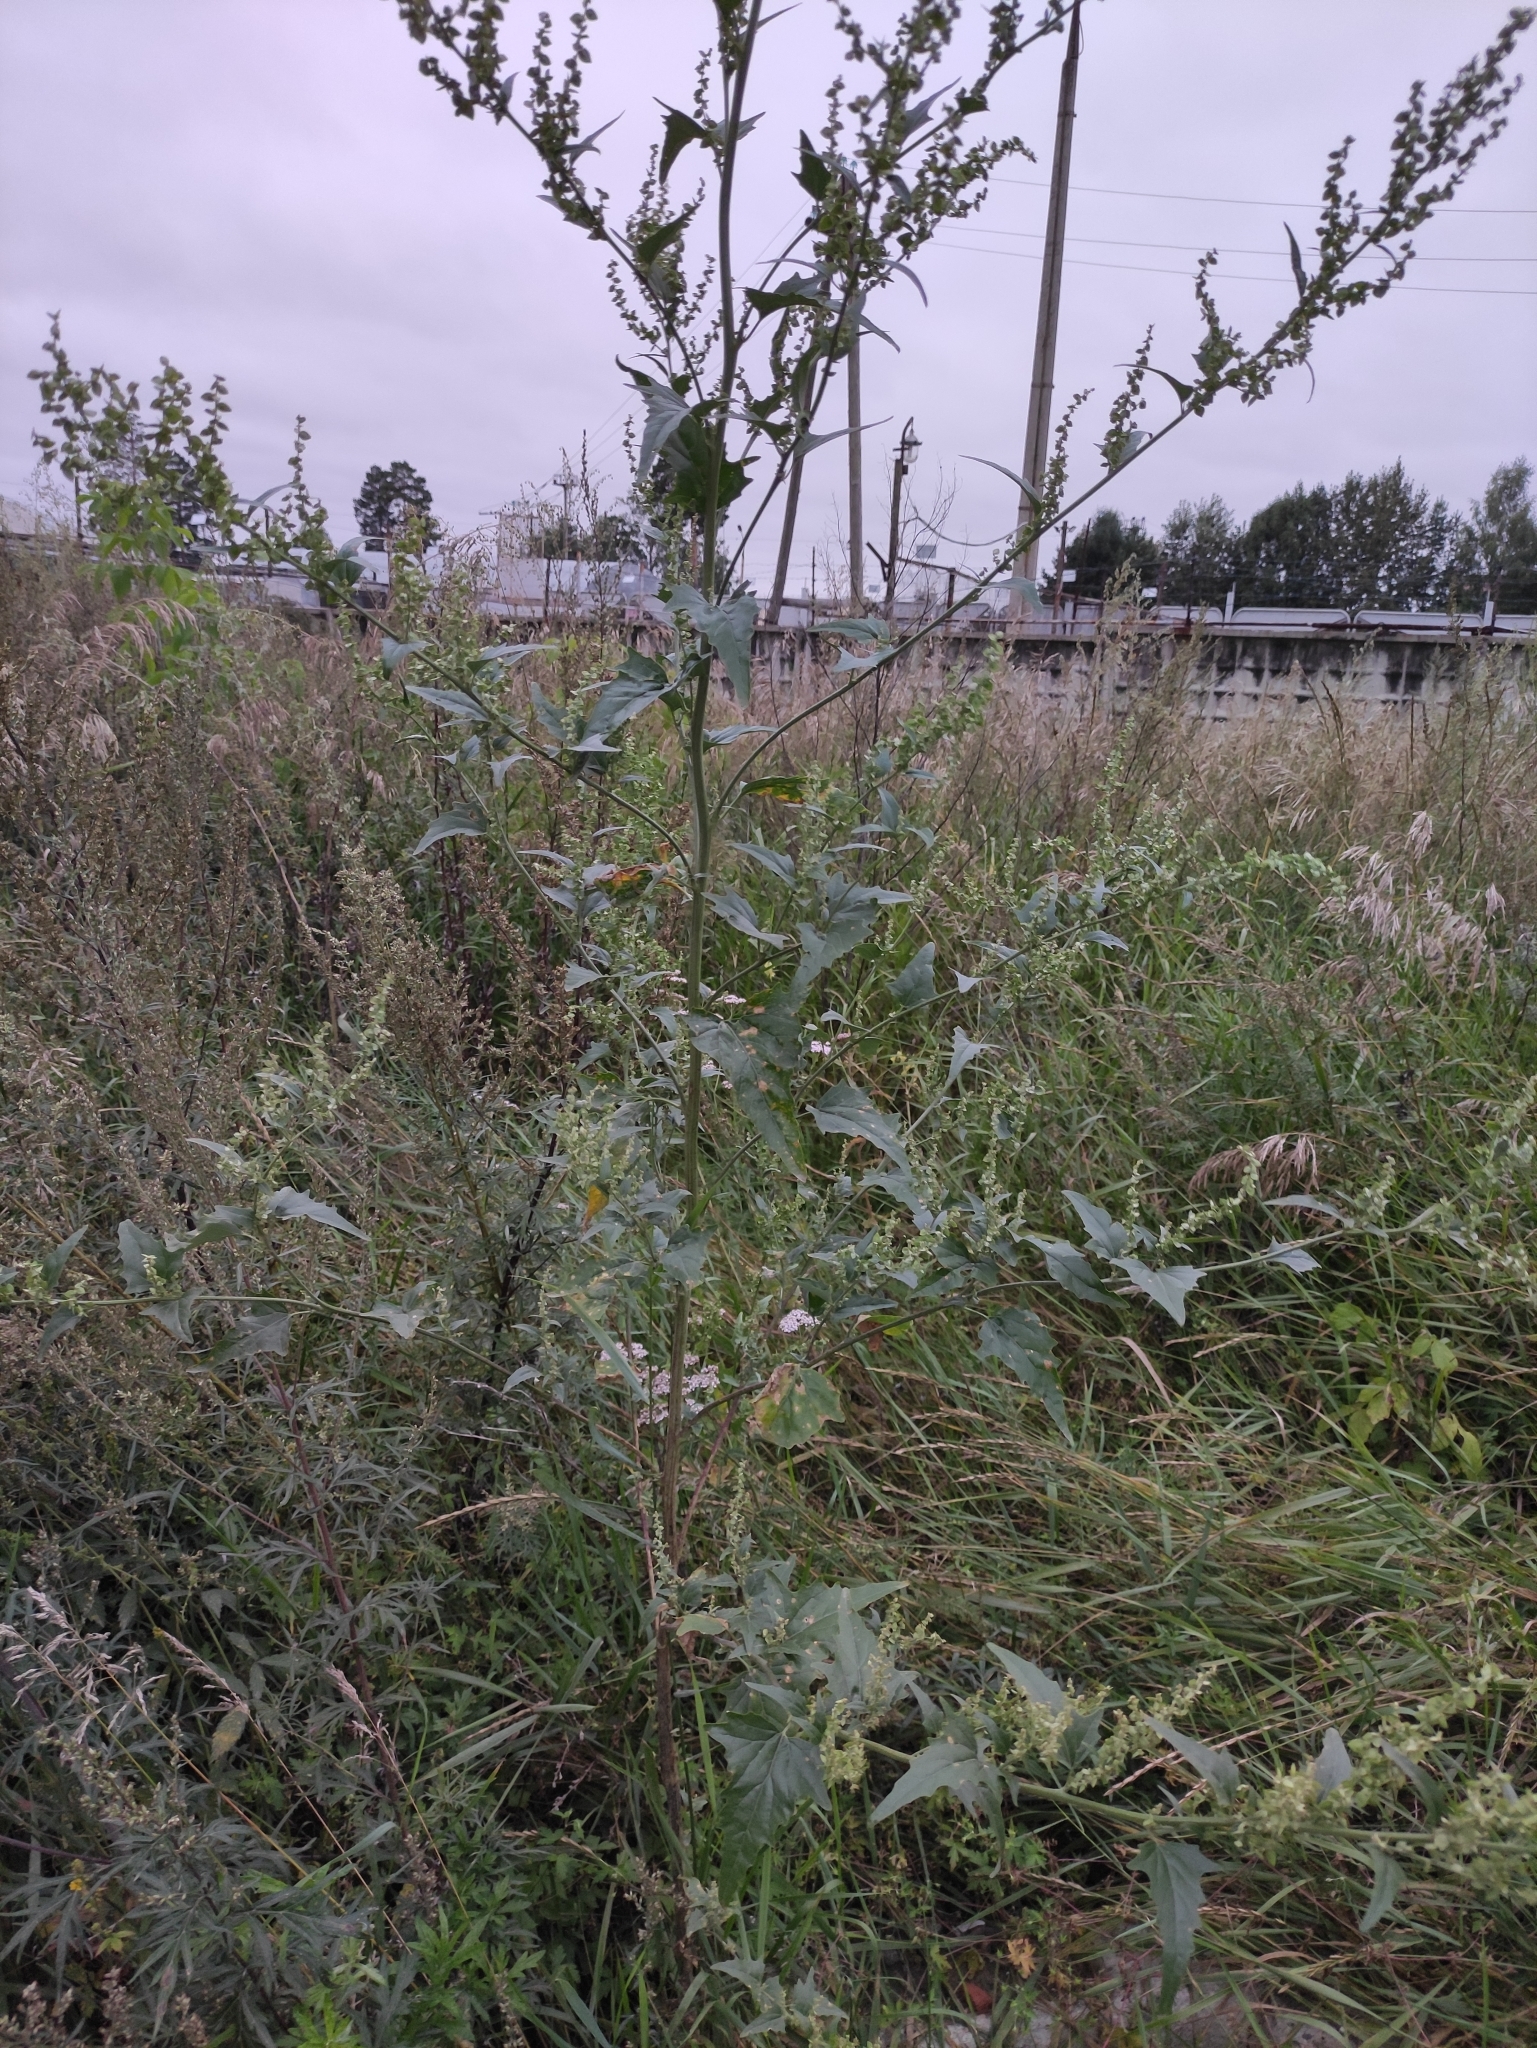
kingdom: Plantae
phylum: Tracheophyta
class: Magnoliopsida
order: Caryophyllales
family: Amaranthaceae
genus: Atriplex
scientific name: Atriplex sagittata
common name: Purple orache
